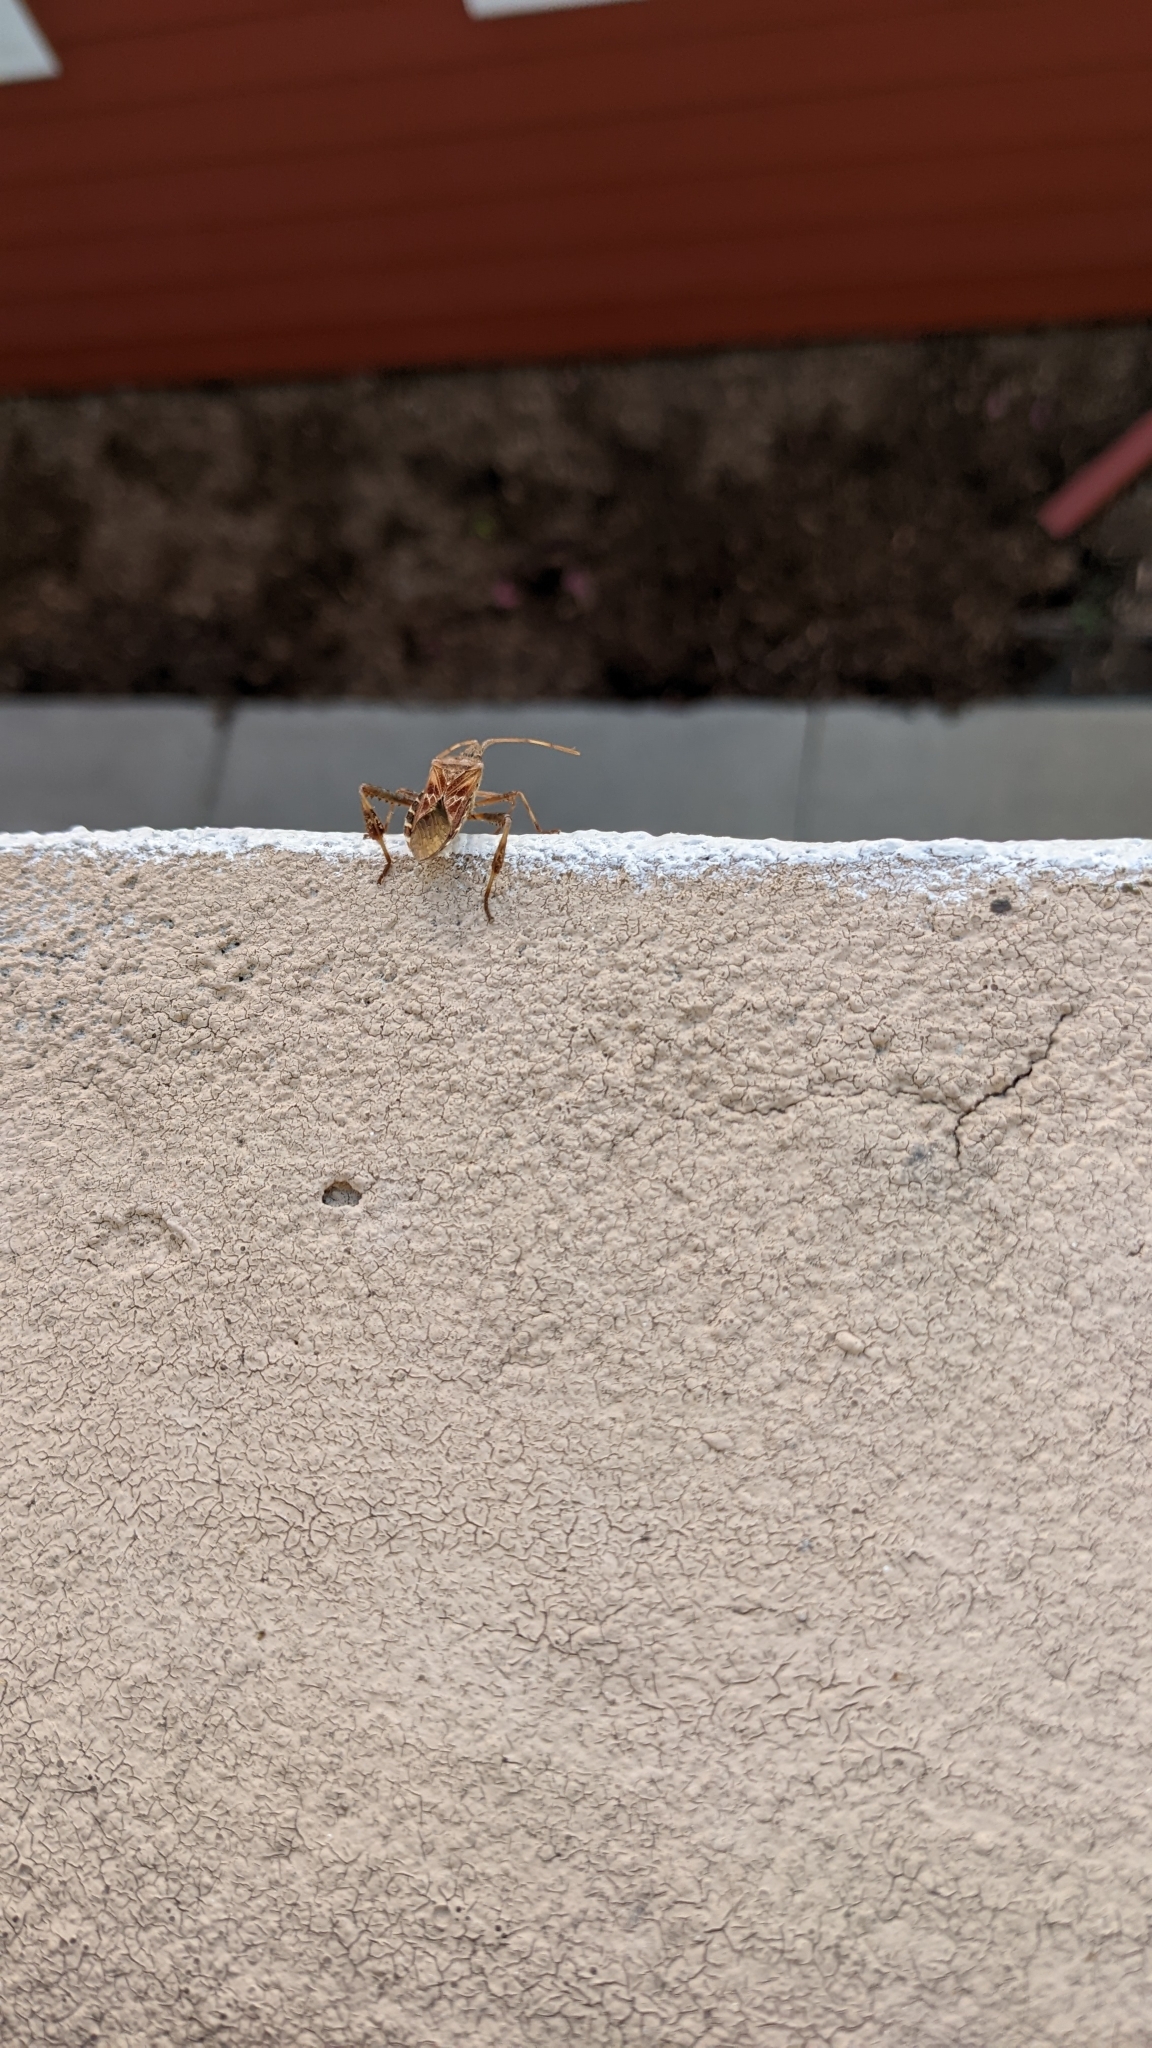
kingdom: Animalia
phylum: Arthropoda
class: Insecta
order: Hemiptera
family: Coreidae
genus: Leptoglossus
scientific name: Leptoglossus occidentalis
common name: Western conifer-seed bug
